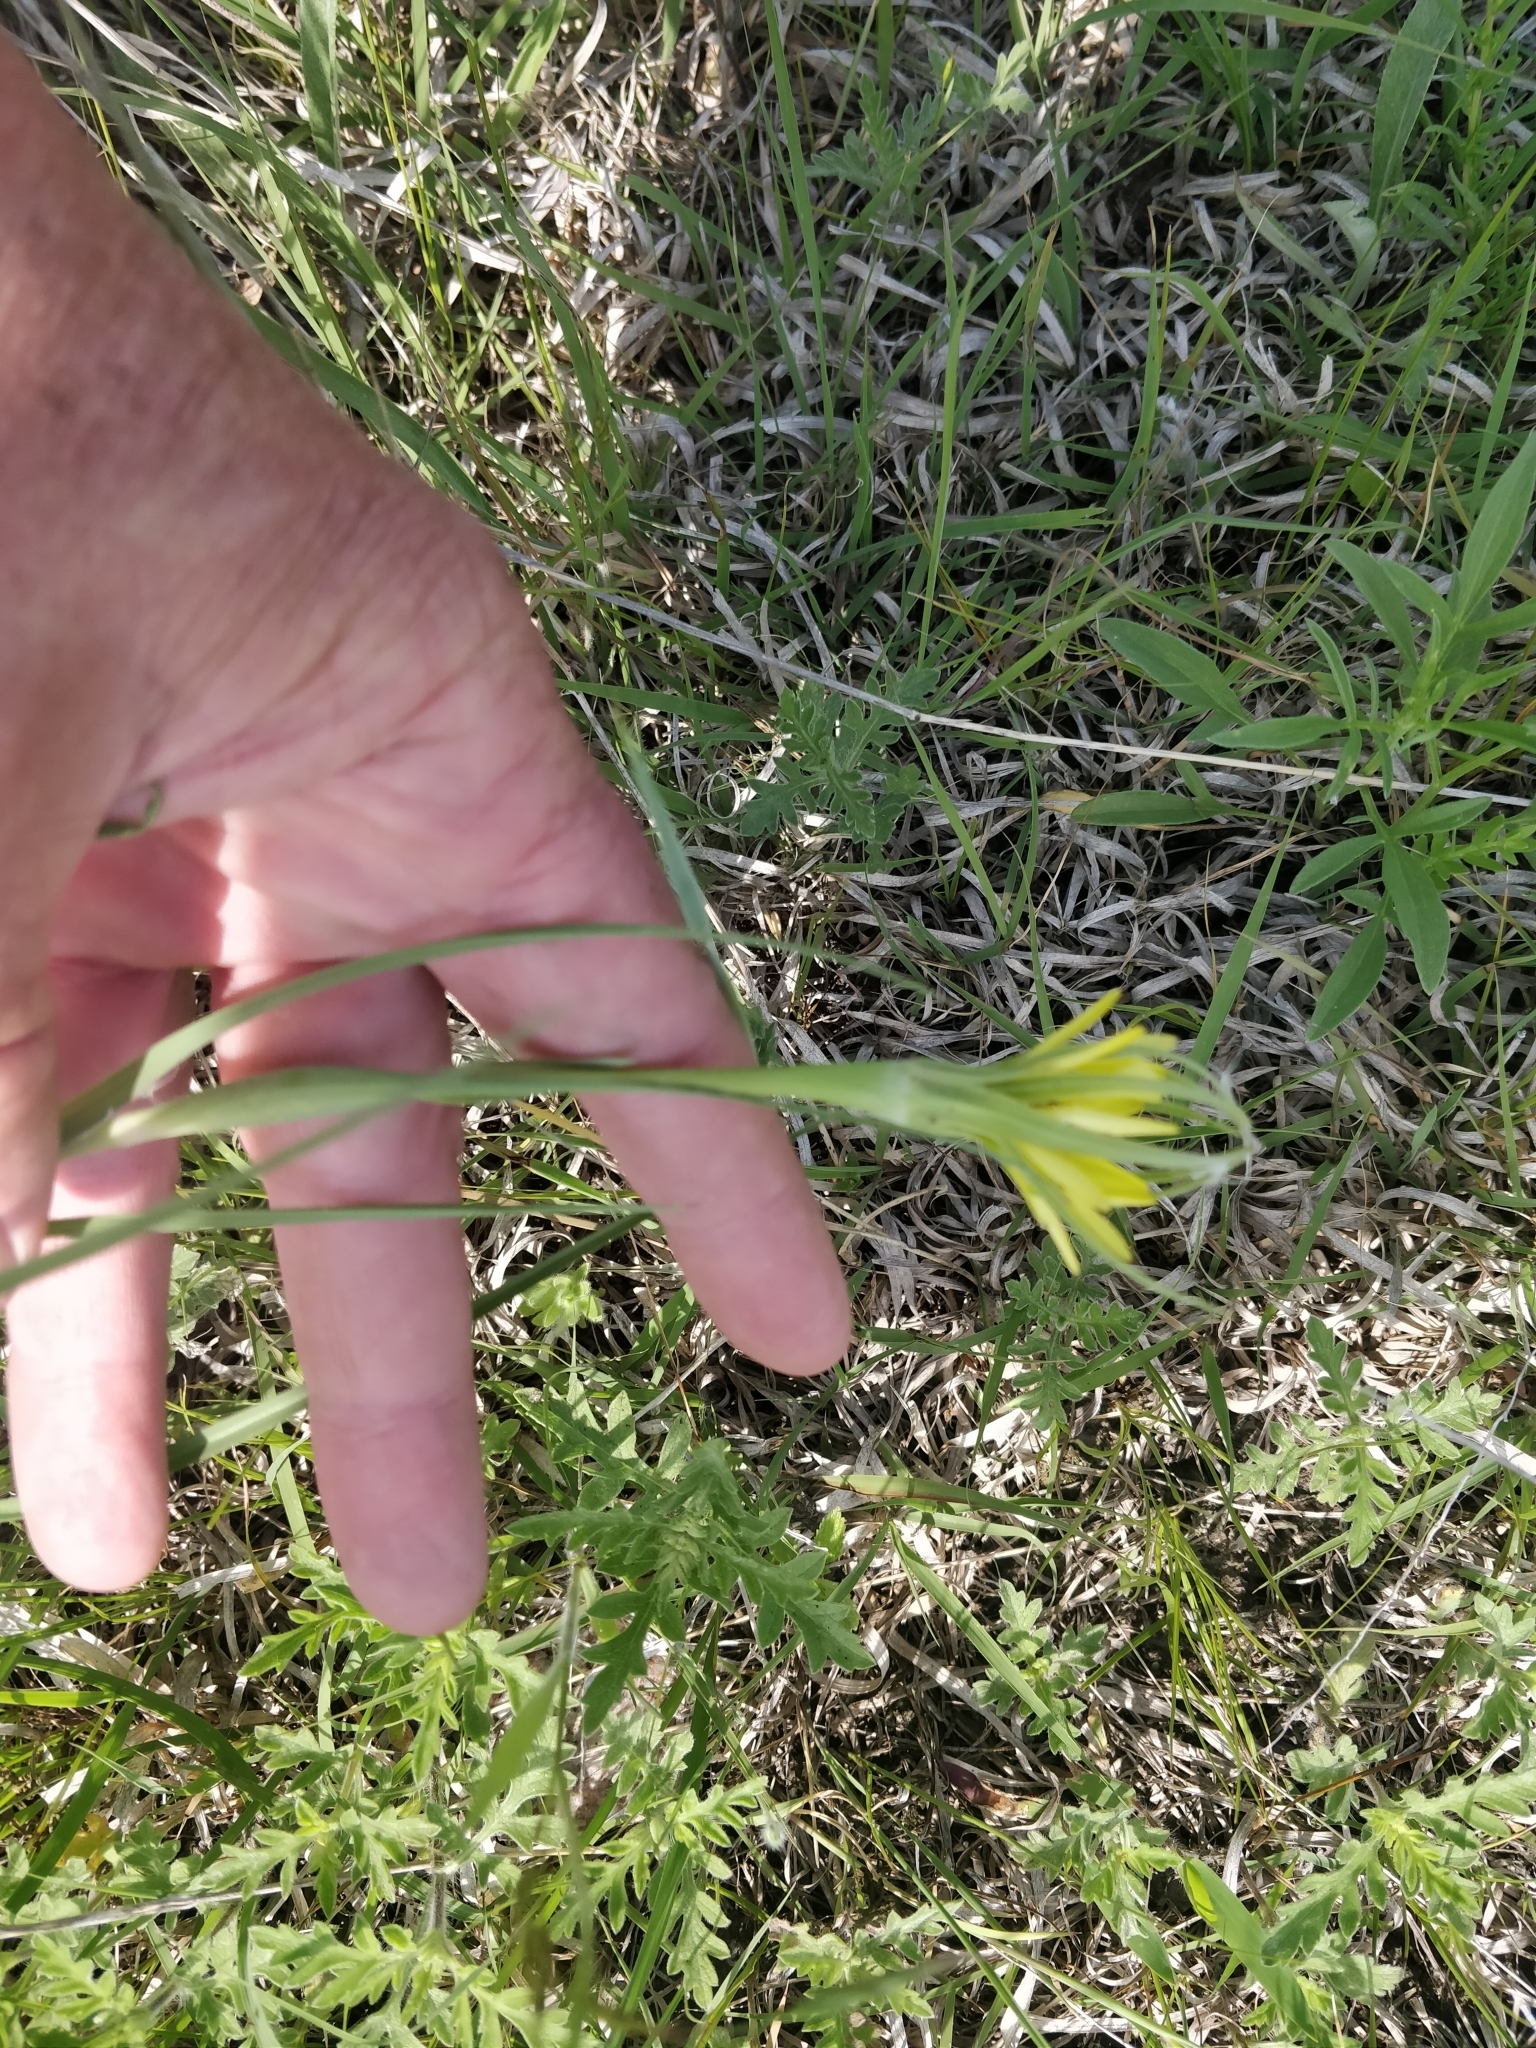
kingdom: Plantae
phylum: Tracheophyta
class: Magnoliopsida
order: Asterales
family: Asteraceae
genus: Tragopogon
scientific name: Tragopogon dubius
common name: Yellow salsify
